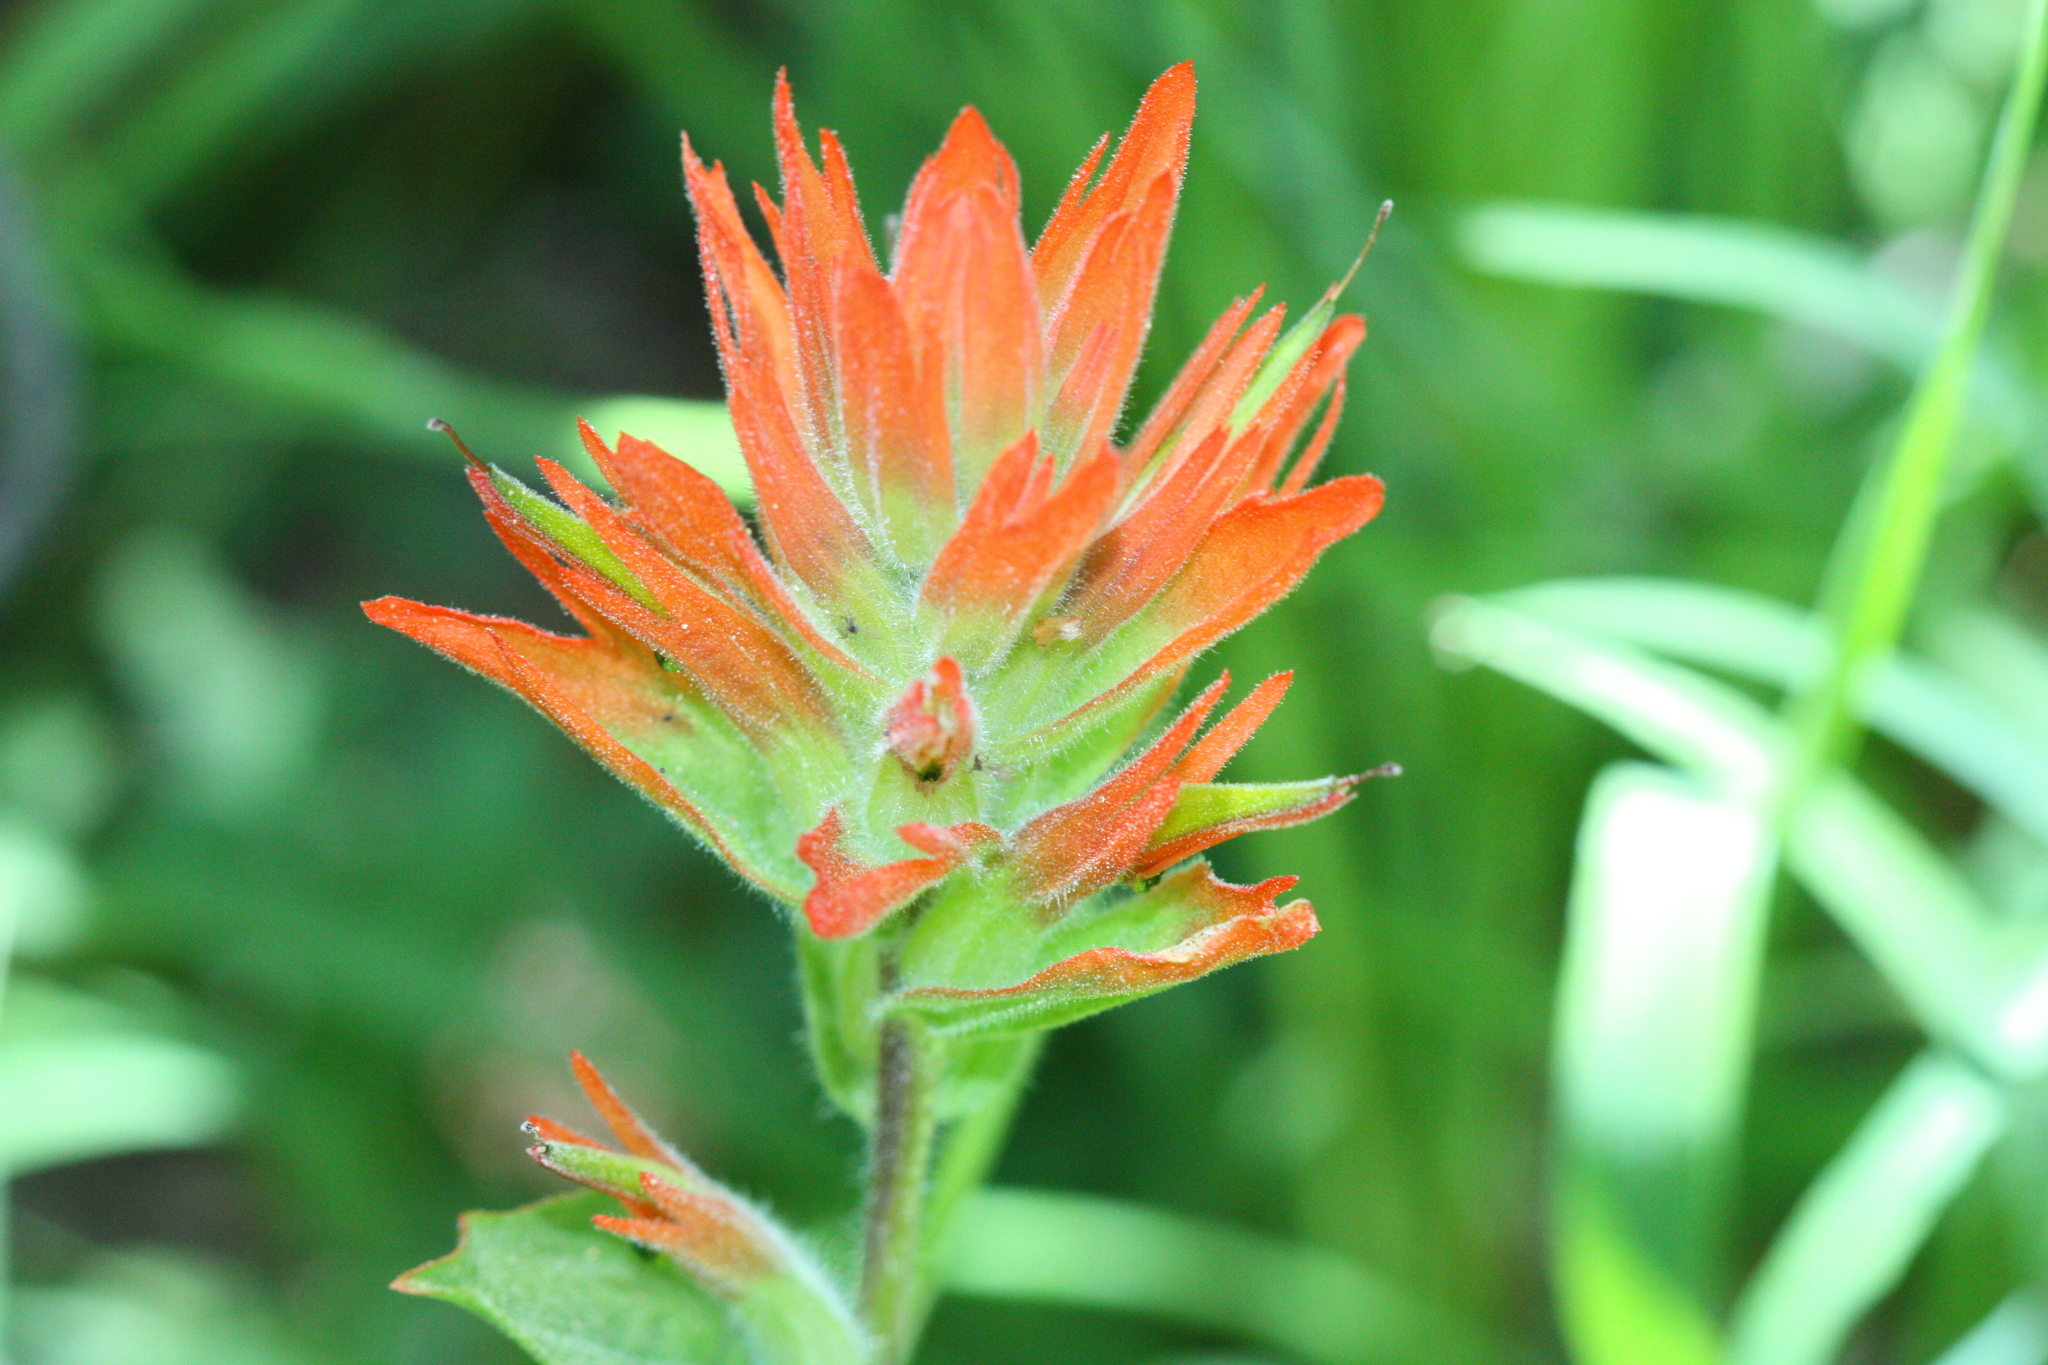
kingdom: Plantae
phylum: Tracheophyta
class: Magnoliopsida
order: Lamiales
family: Orobanchaceae
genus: Castilleja
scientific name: Castilleja
